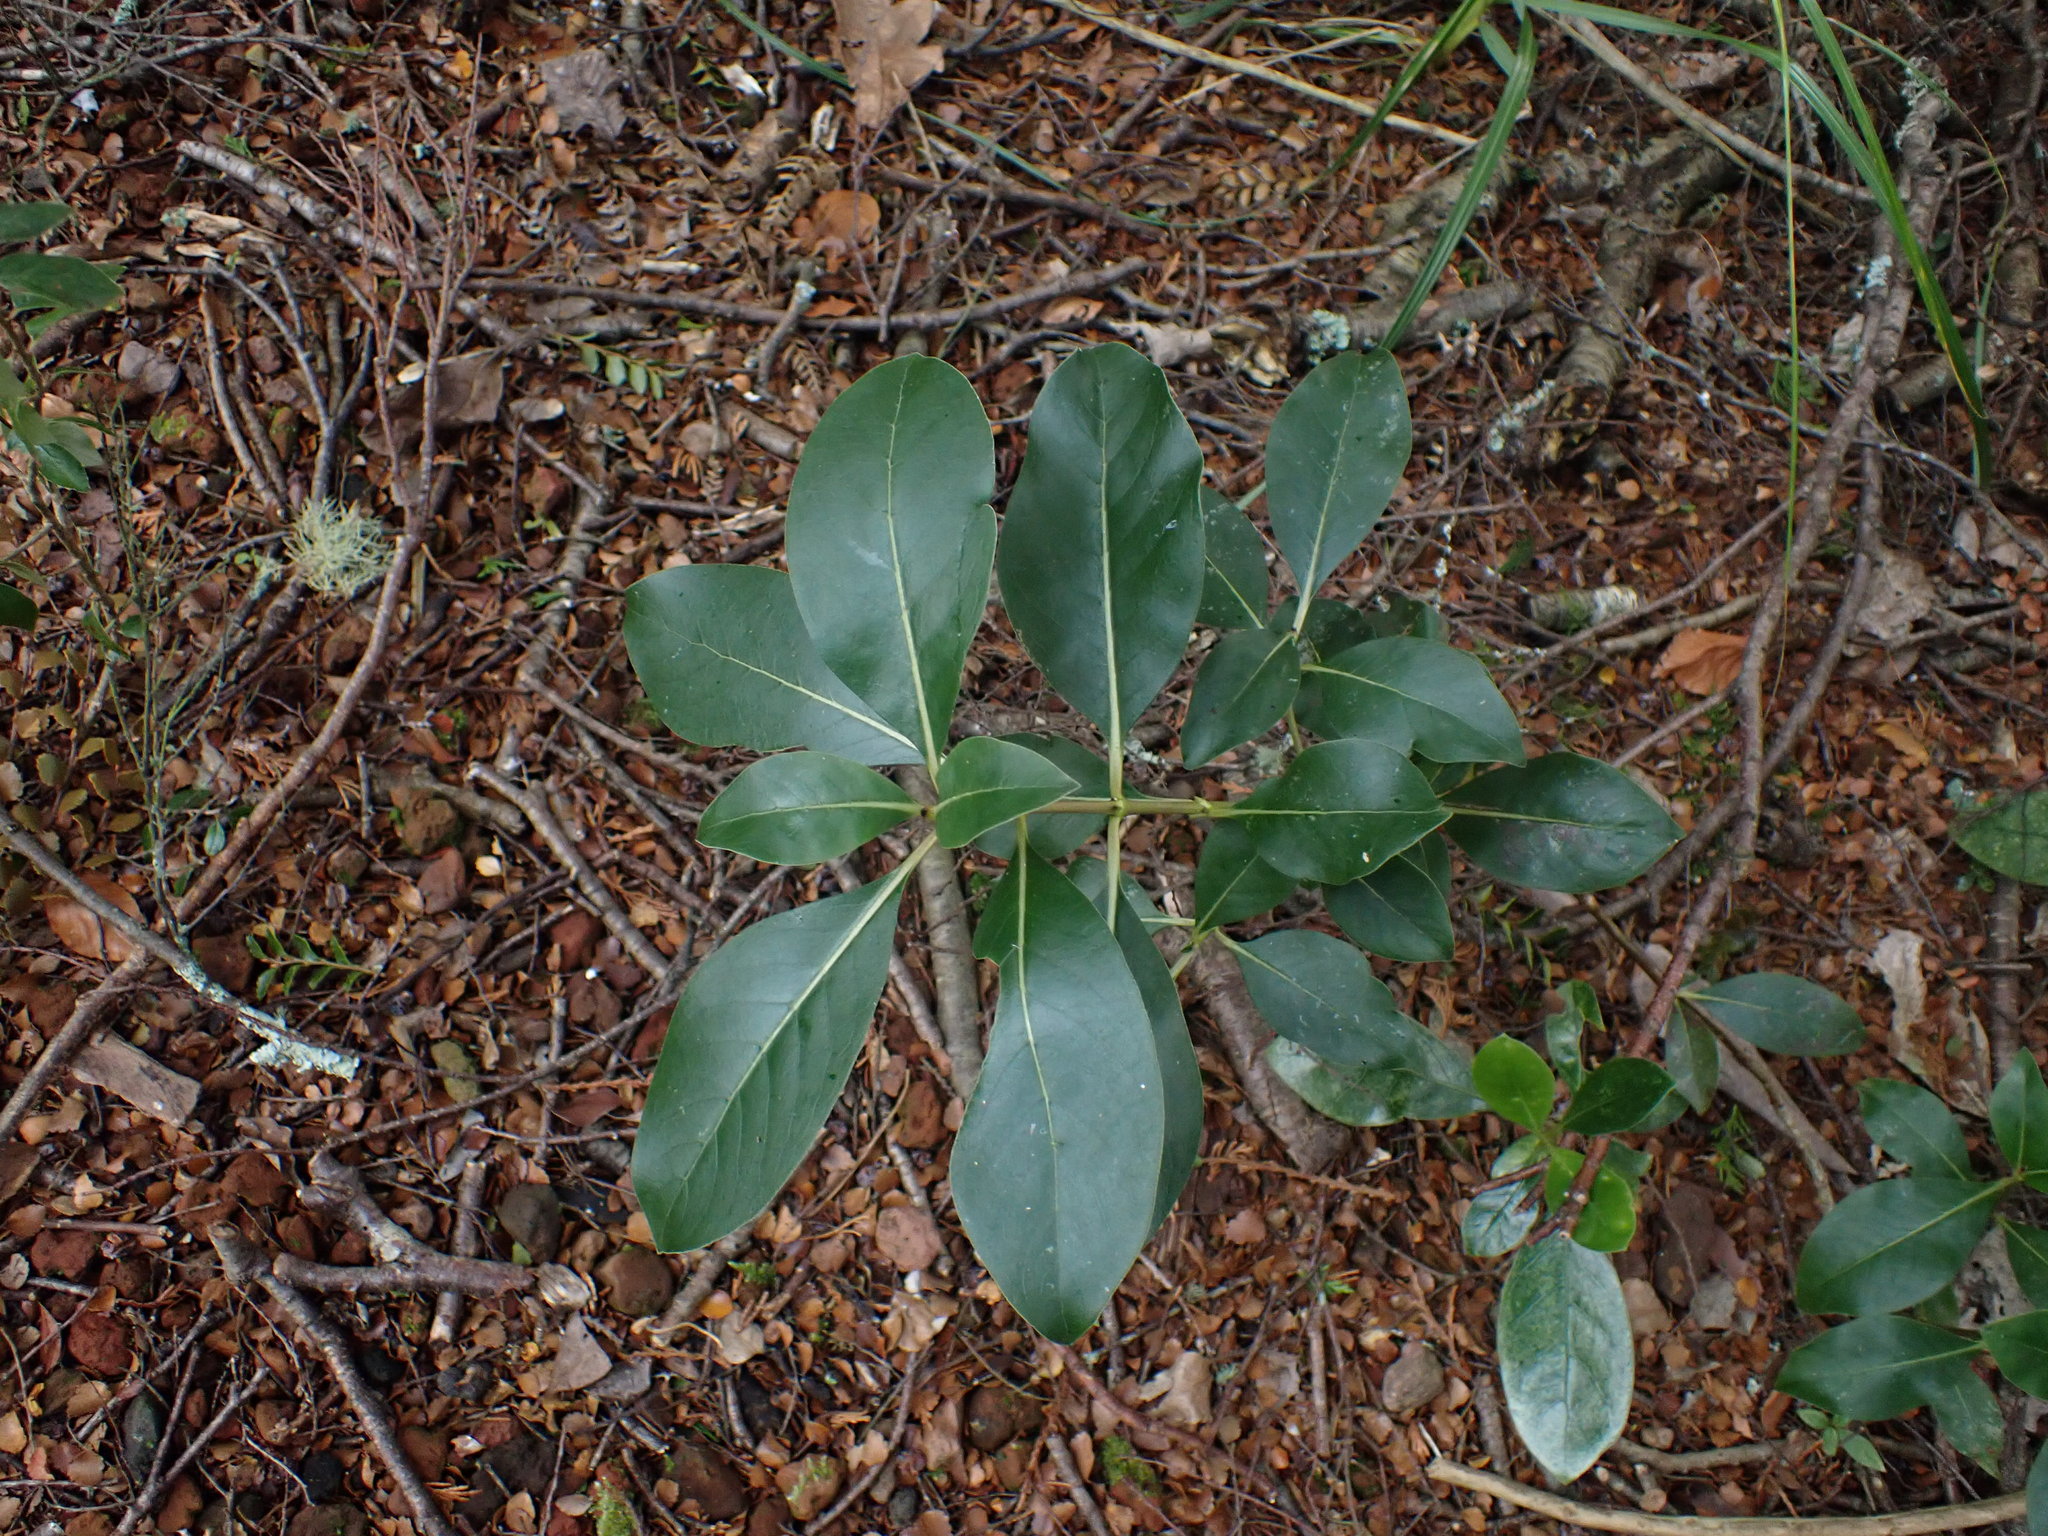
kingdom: Plantae
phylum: Tracheophyta
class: Magnoliopsida
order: Gentianales
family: Rubiaceae
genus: Coprosma
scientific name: Coprosma robusta
